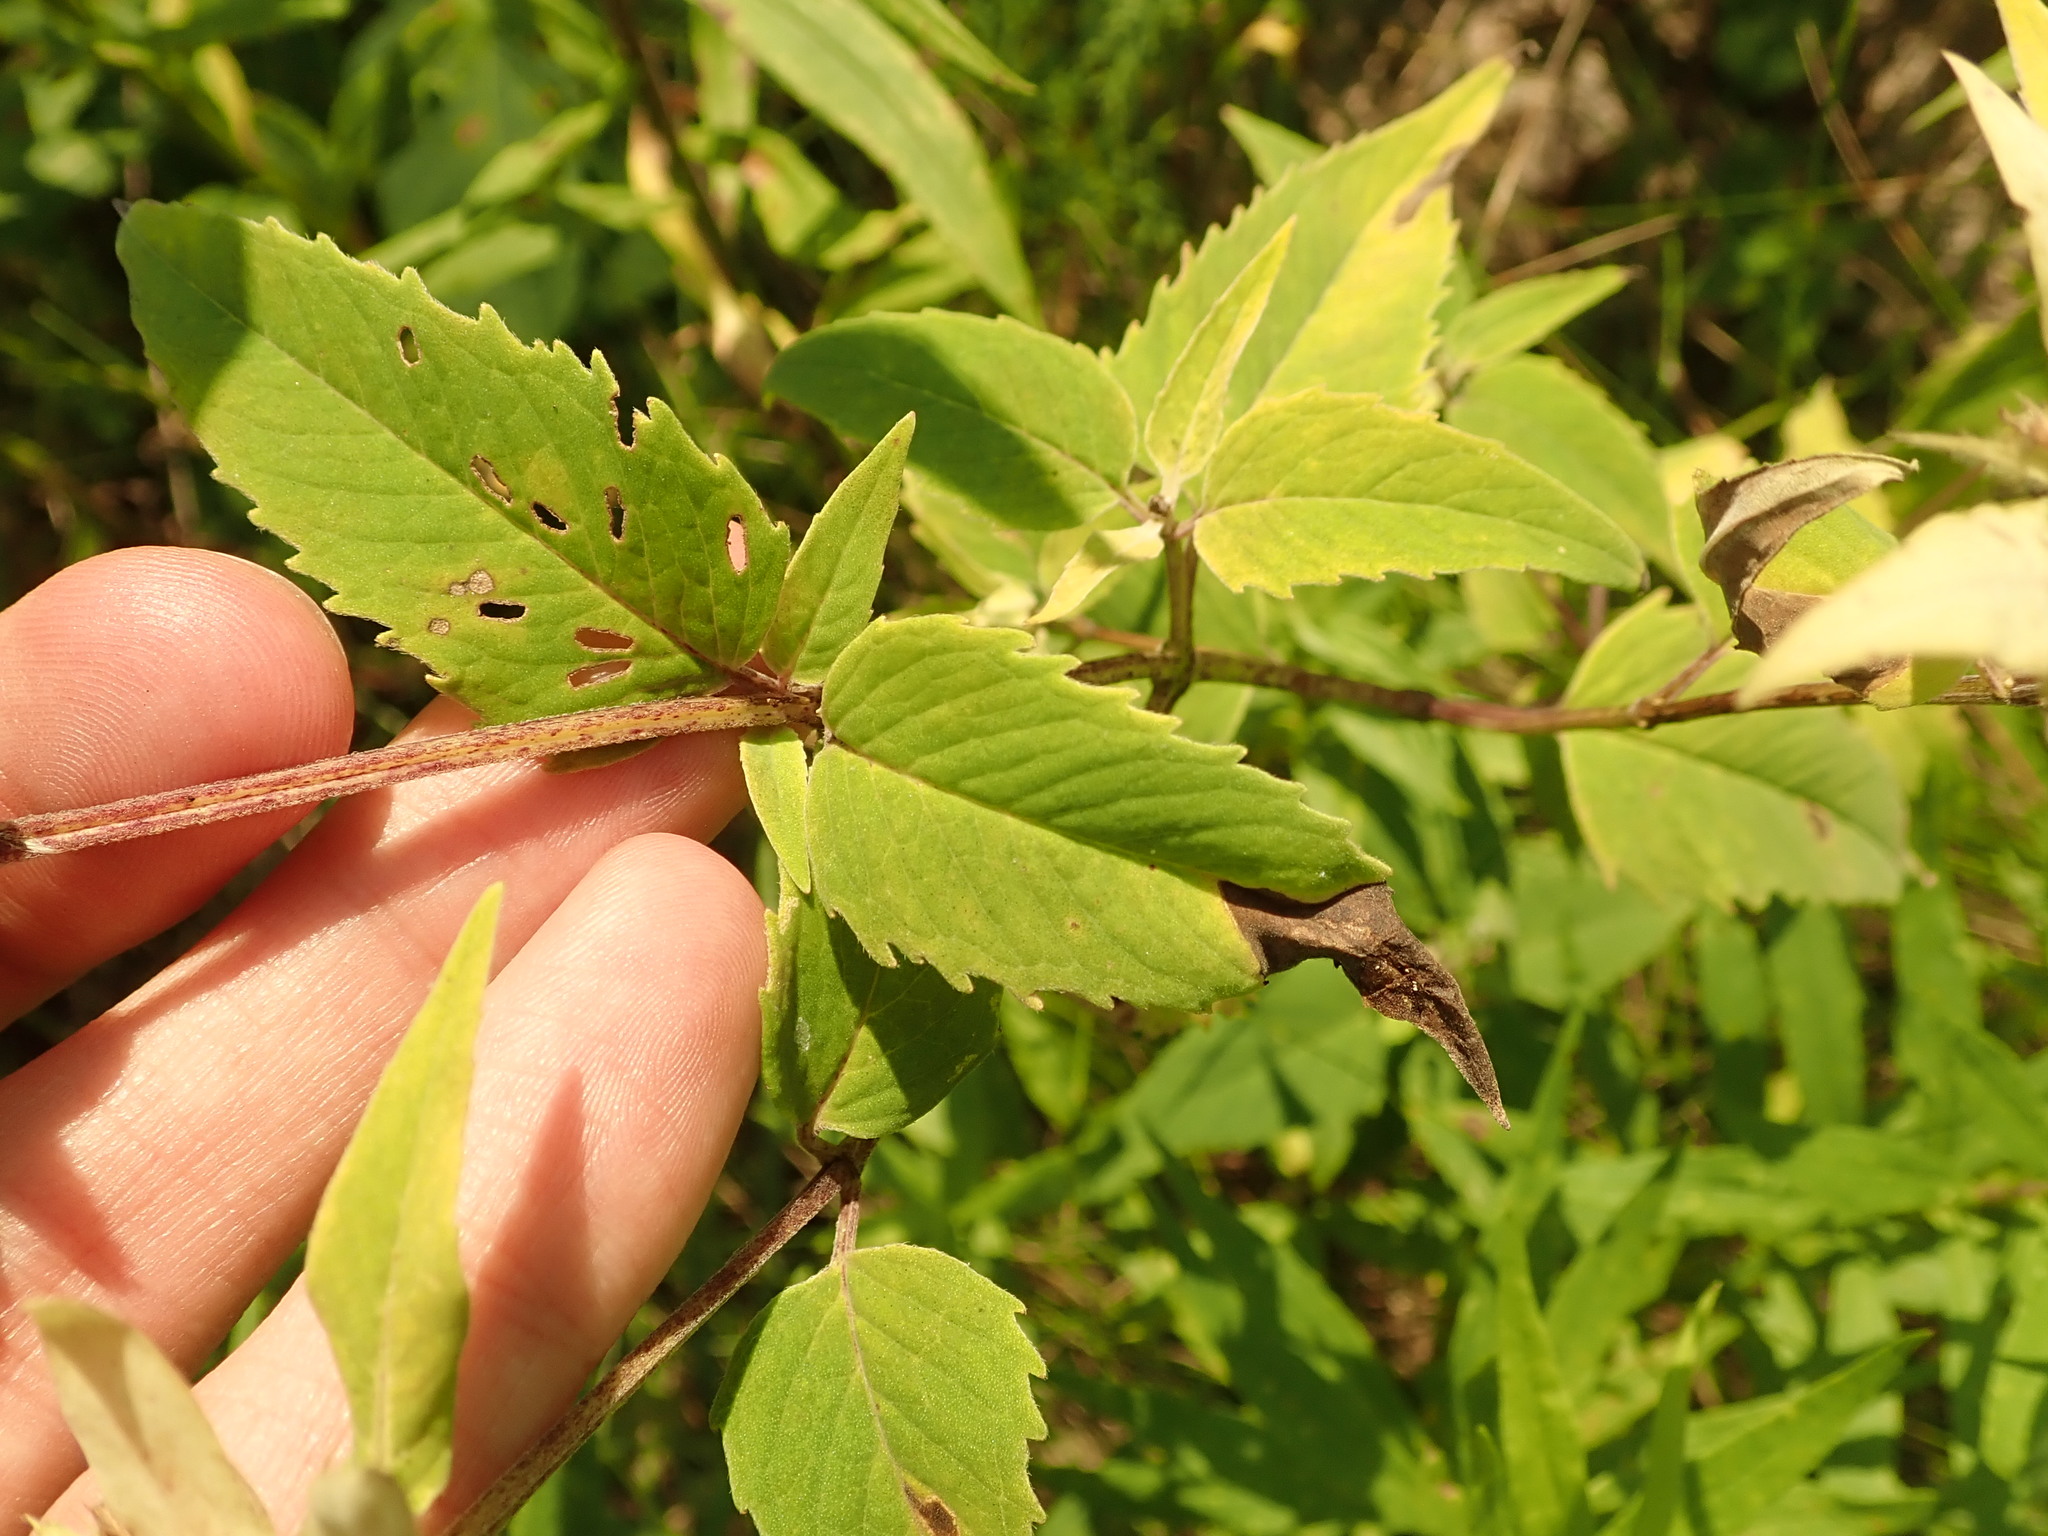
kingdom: Plantae
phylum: Tracheophyta
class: Magnoliopsida
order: Lamiales
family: Lamiaceae
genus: Monarda
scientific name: Monarda fistulosa
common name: Purple beebalm
